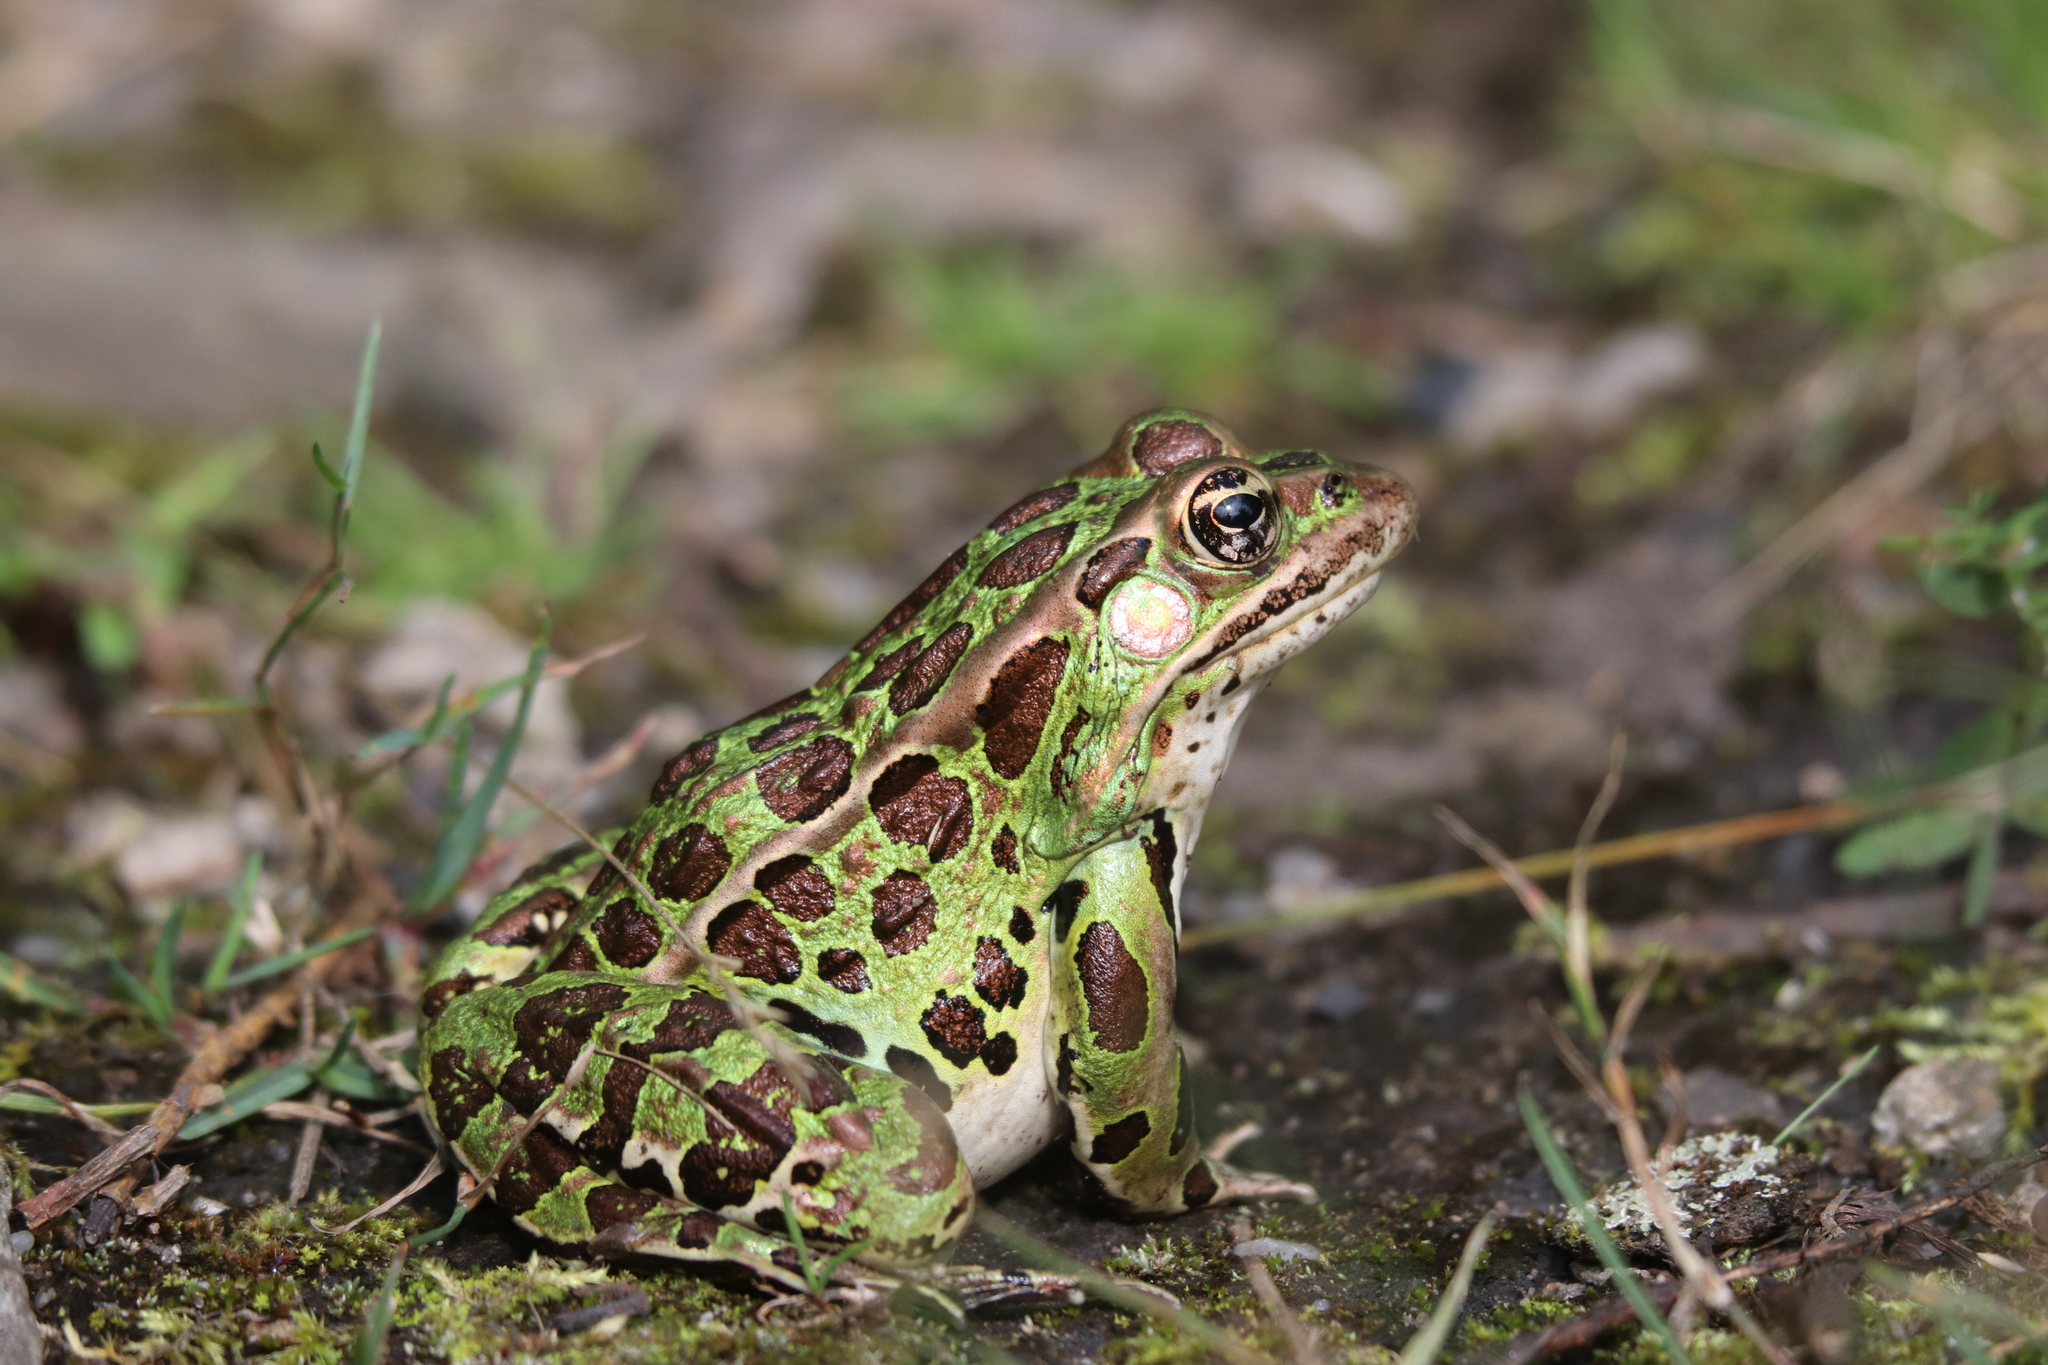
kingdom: Animalia
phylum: Chordata
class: Amphibia
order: Anura
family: Ranidae
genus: Lithobates
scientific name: Lithobates pipiens
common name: Northern leopard frog
